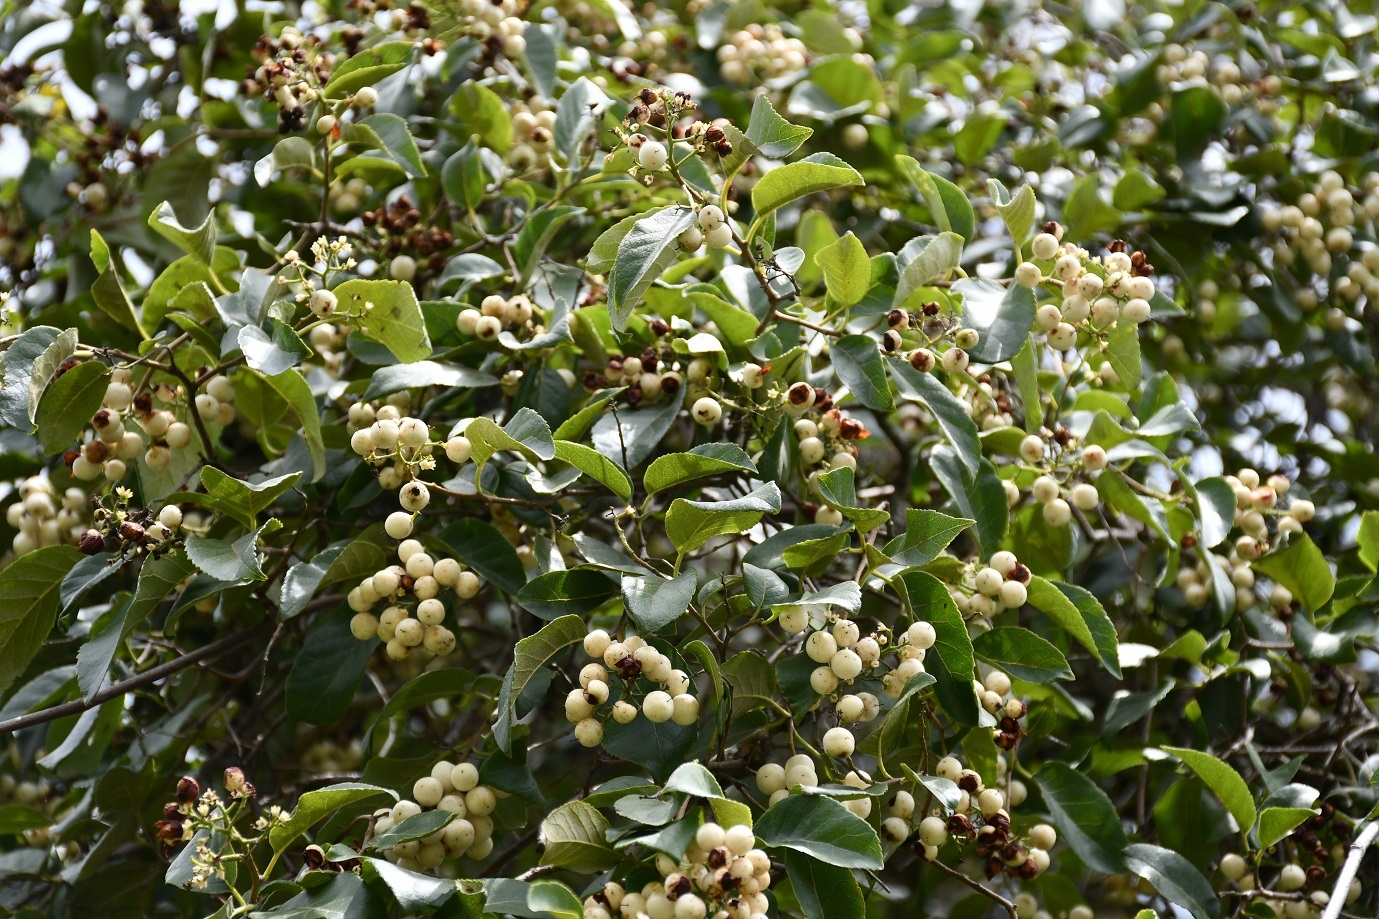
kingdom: Plantae
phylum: Tracheophyta
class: Magnoliopsida
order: Boraginales
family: Ehretiaceae
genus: Ehretia
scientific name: Ehretia latifolia
